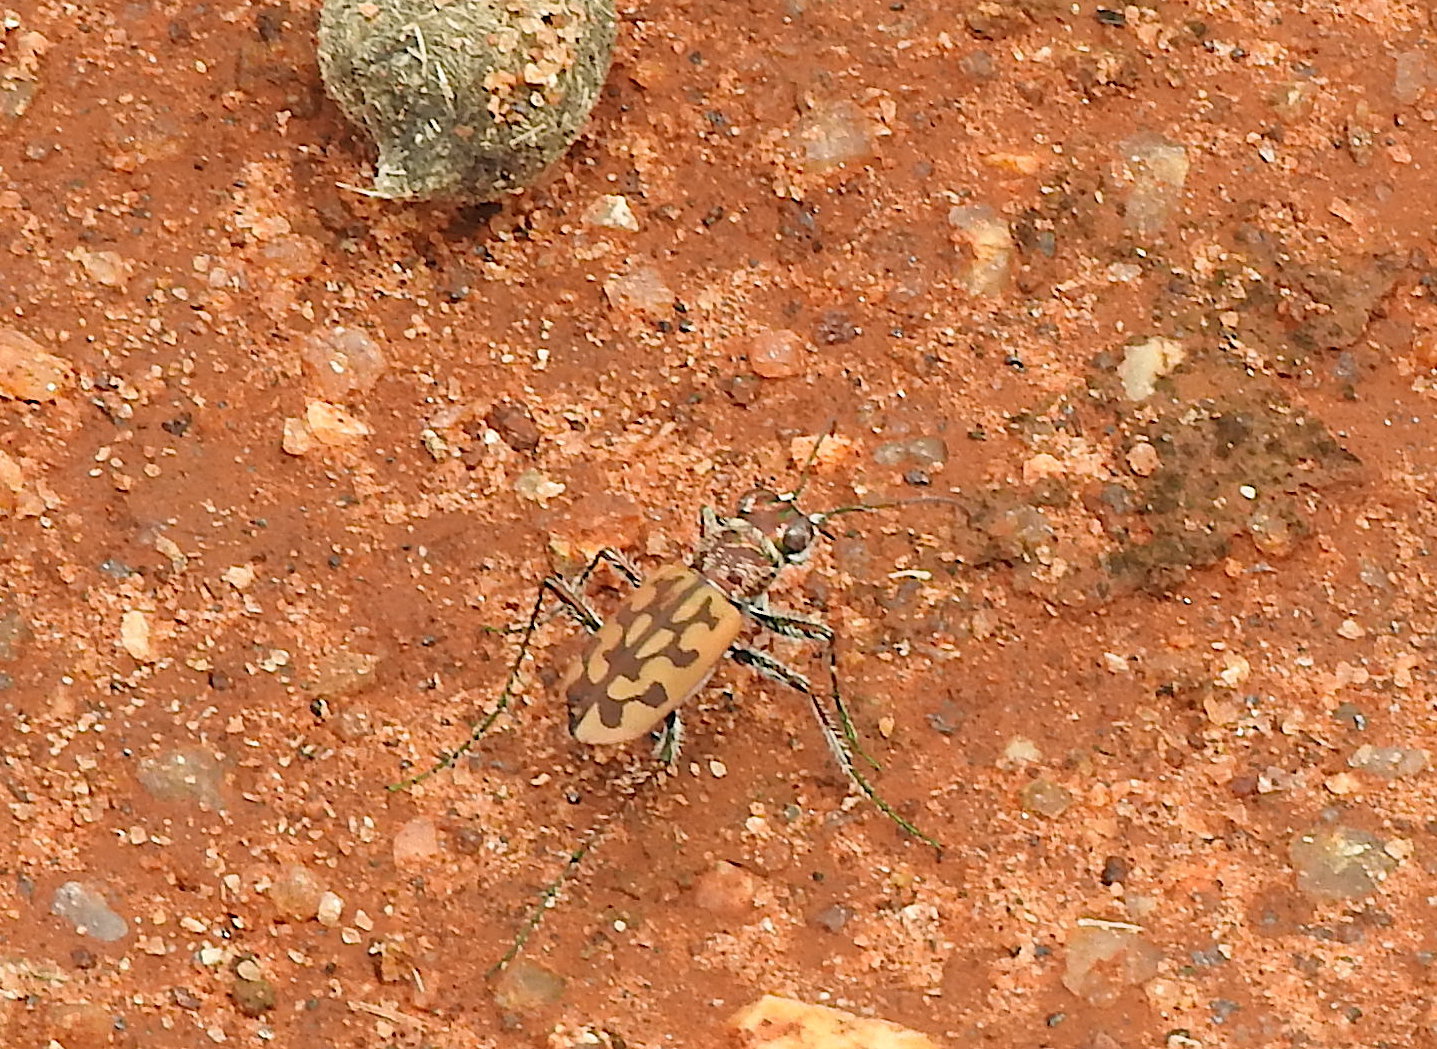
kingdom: Animalia
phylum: Arthropoda
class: Insecta
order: Coleoptera
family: Carabidae
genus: Lophyra
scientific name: Lophyra catena
